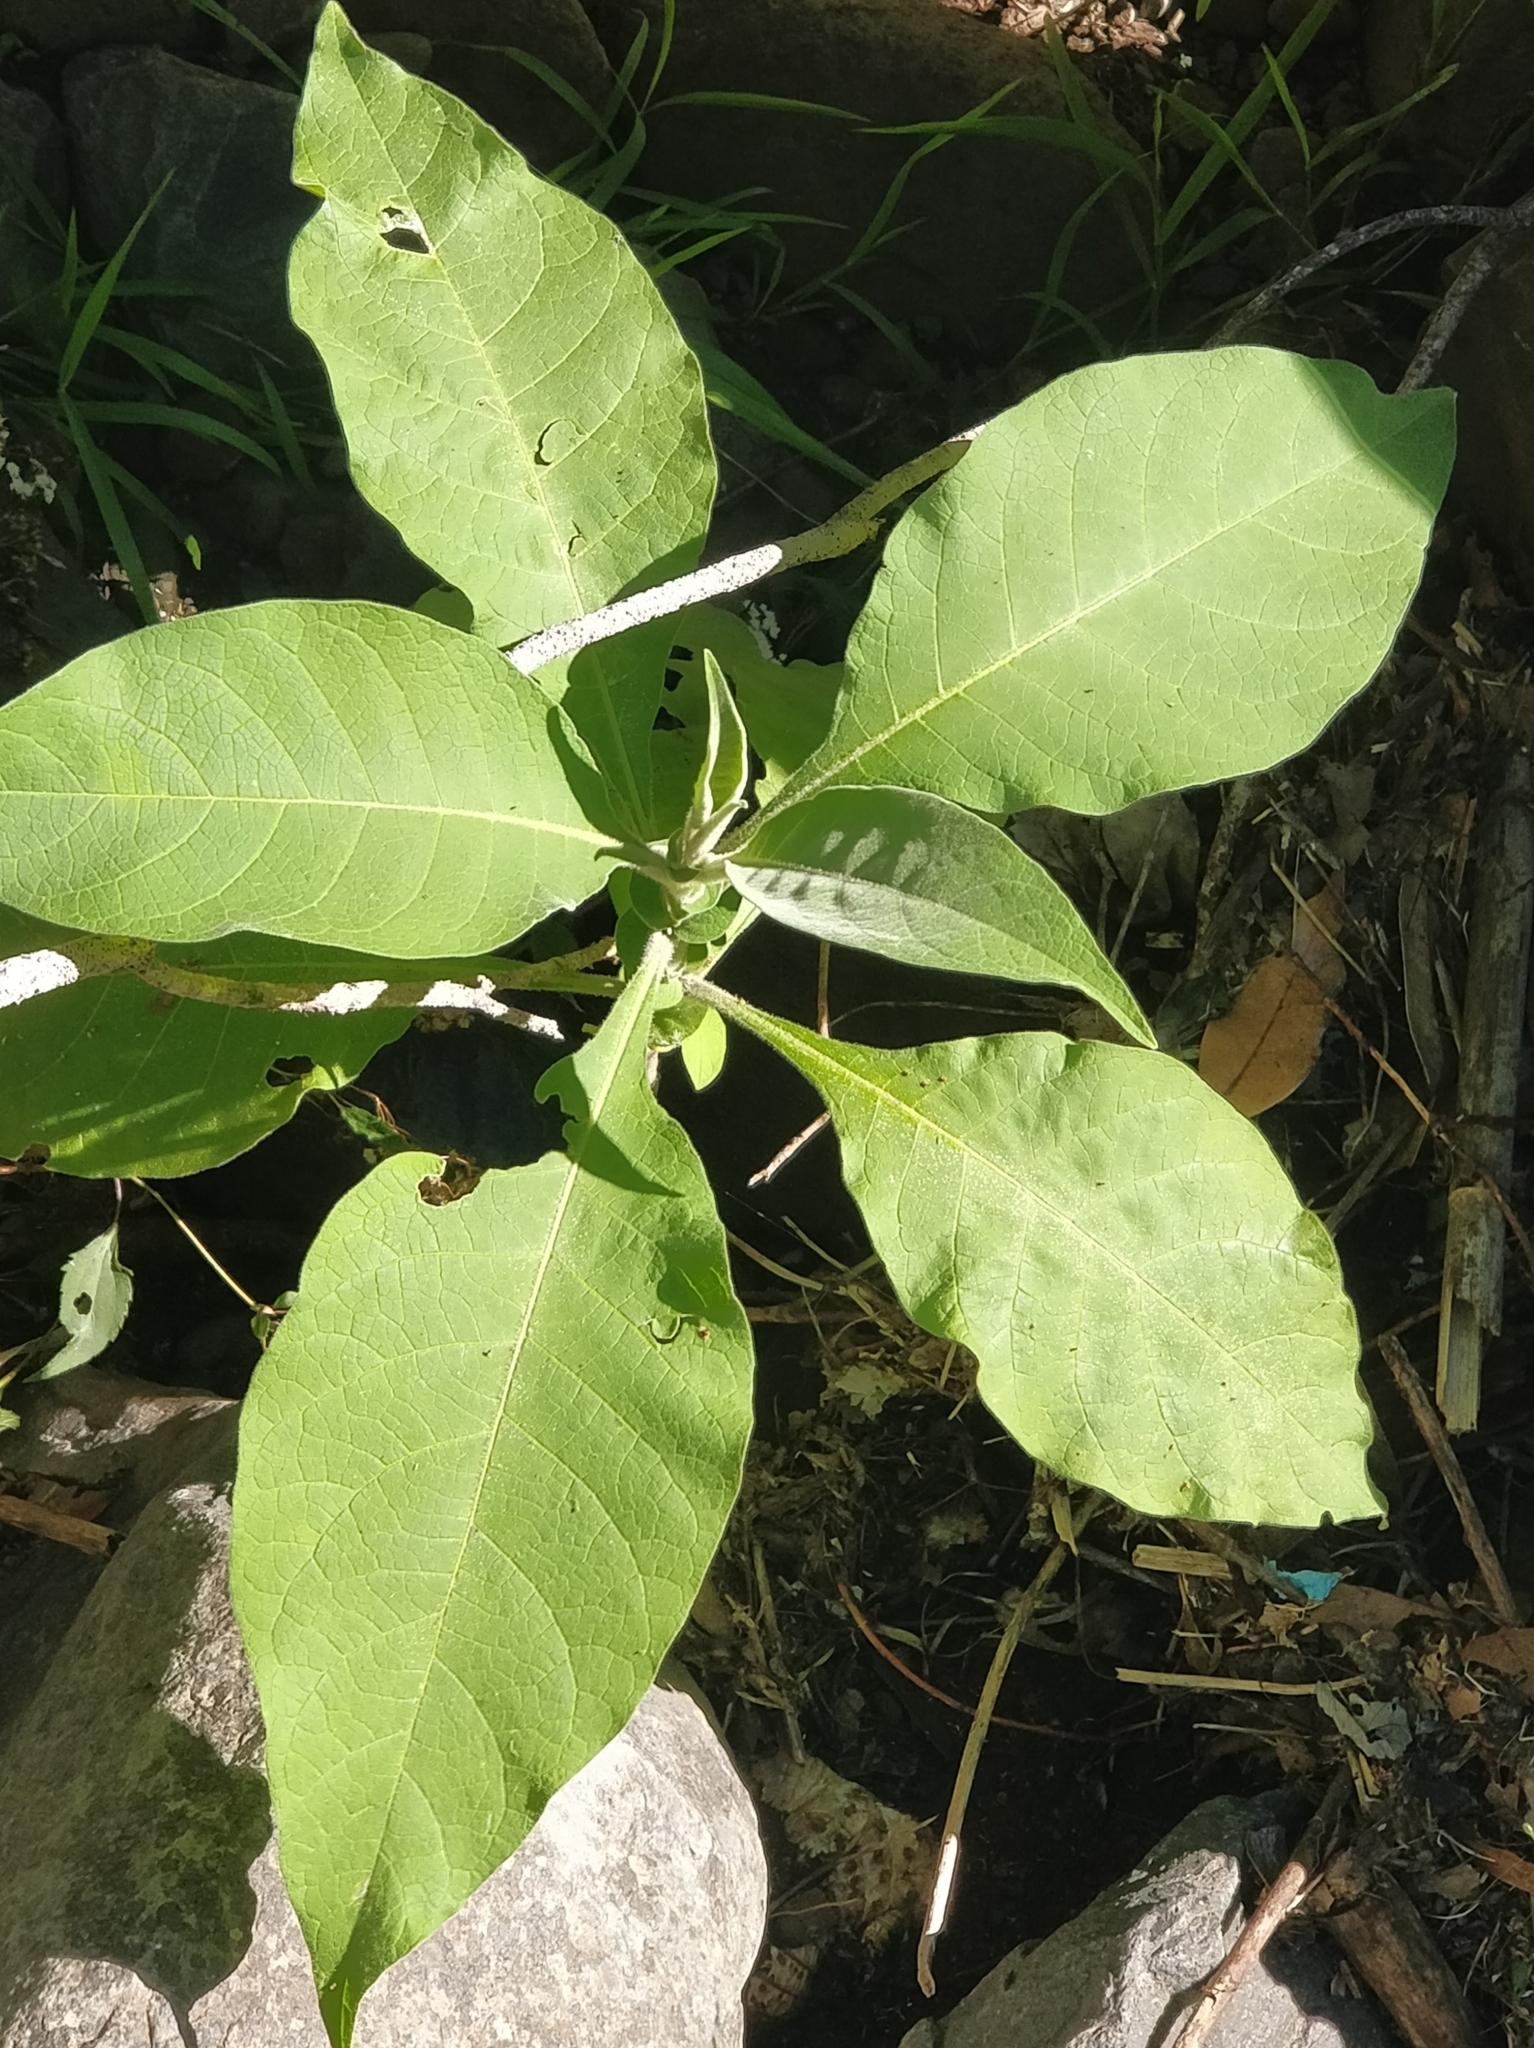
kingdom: Plantae
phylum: Tracheophyta
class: Magnoliopsida
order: Solanales
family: Solanaceae
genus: Solanum
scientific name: Solanum mauritianum
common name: Earleaf nightshade
